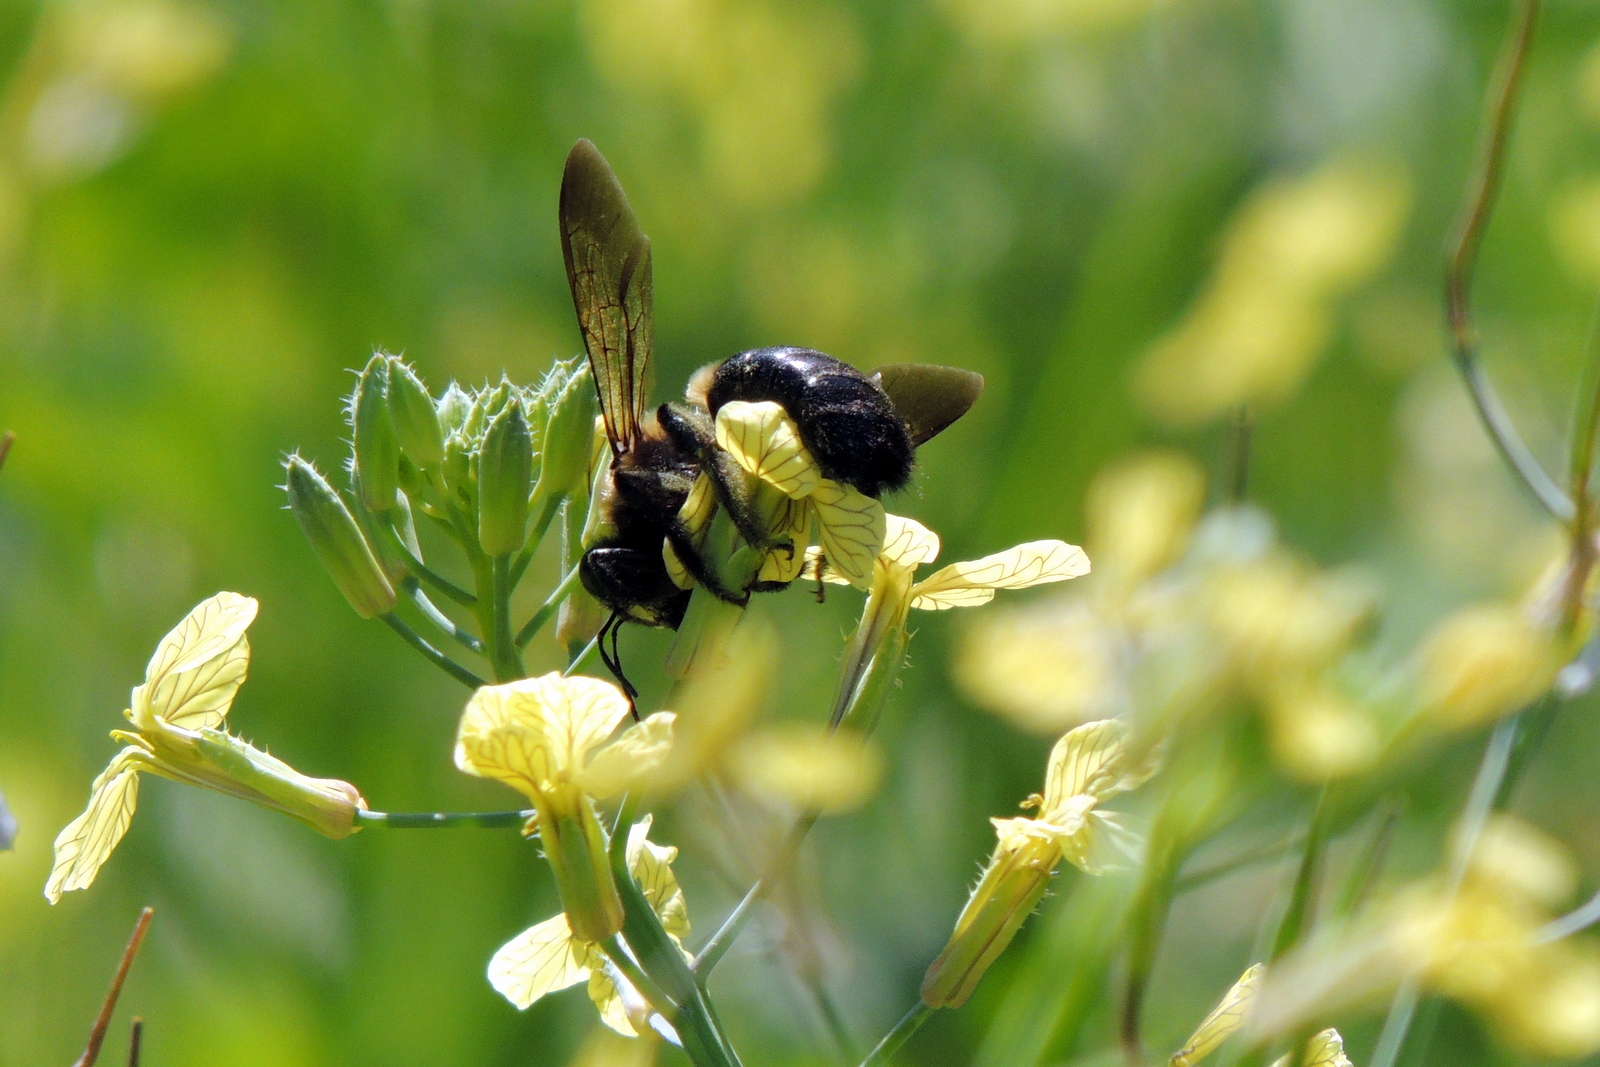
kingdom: Animalia
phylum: Arthropoda
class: Insecta
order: Hymenoptera
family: Apidae
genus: Xylocopa
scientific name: Xylocopa virginica
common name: Carpenter bee
